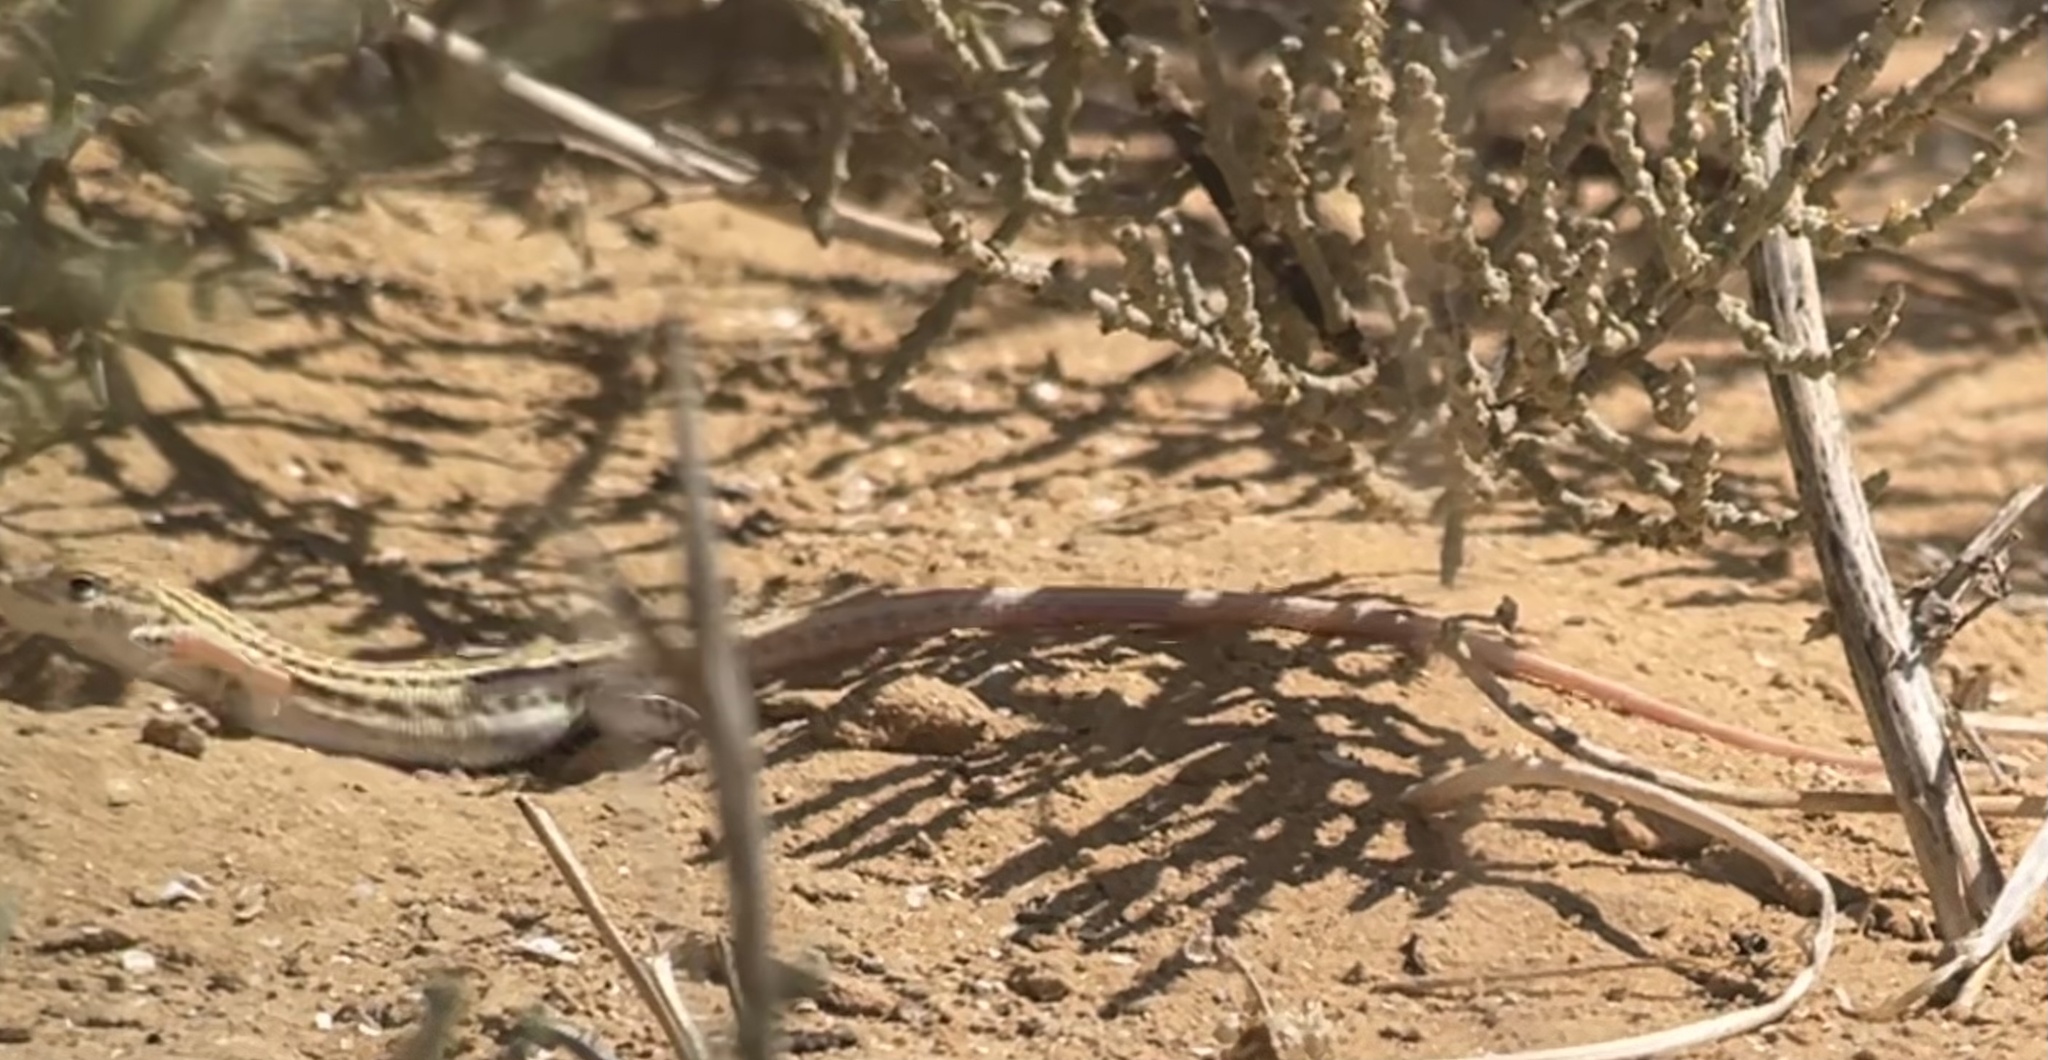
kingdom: Animalia
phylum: Chordata
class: Squamata
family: Lacertidae
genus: Acanthodactylus
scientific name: Acanthodactylus boskianus
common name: Bosc’s fringe-toed lizard
